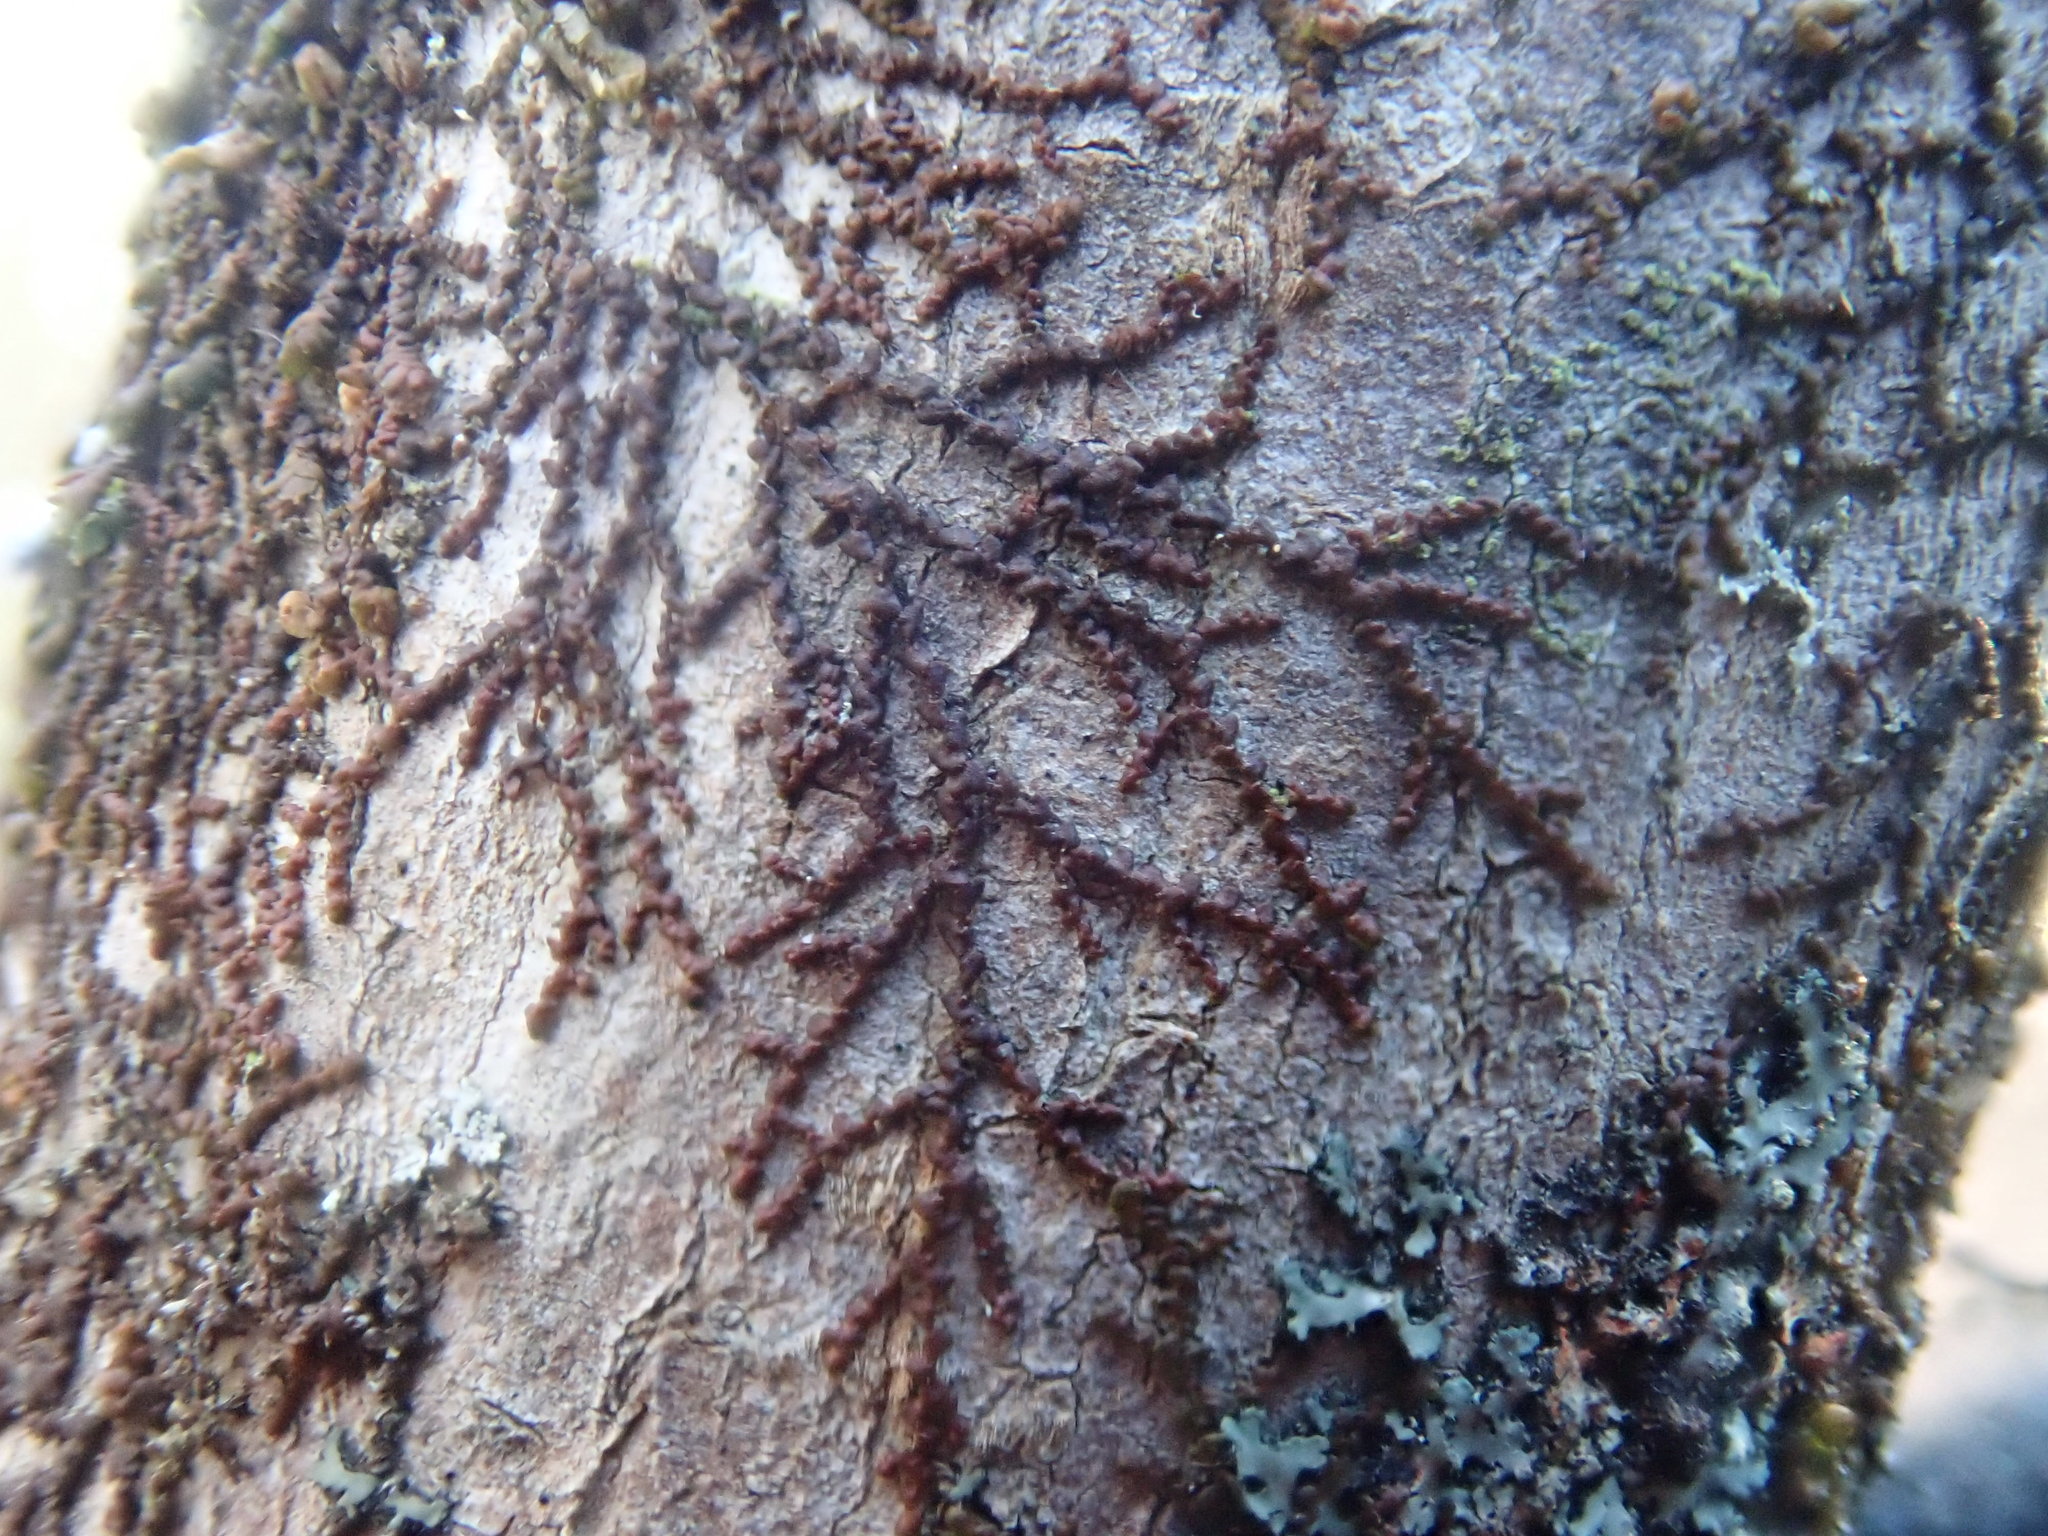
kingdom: Plantae
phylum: Marchantiophyta
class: Jungermanniopsida
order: Porellales
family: Frullaniaceae
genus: Frullania
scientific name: Frullania
